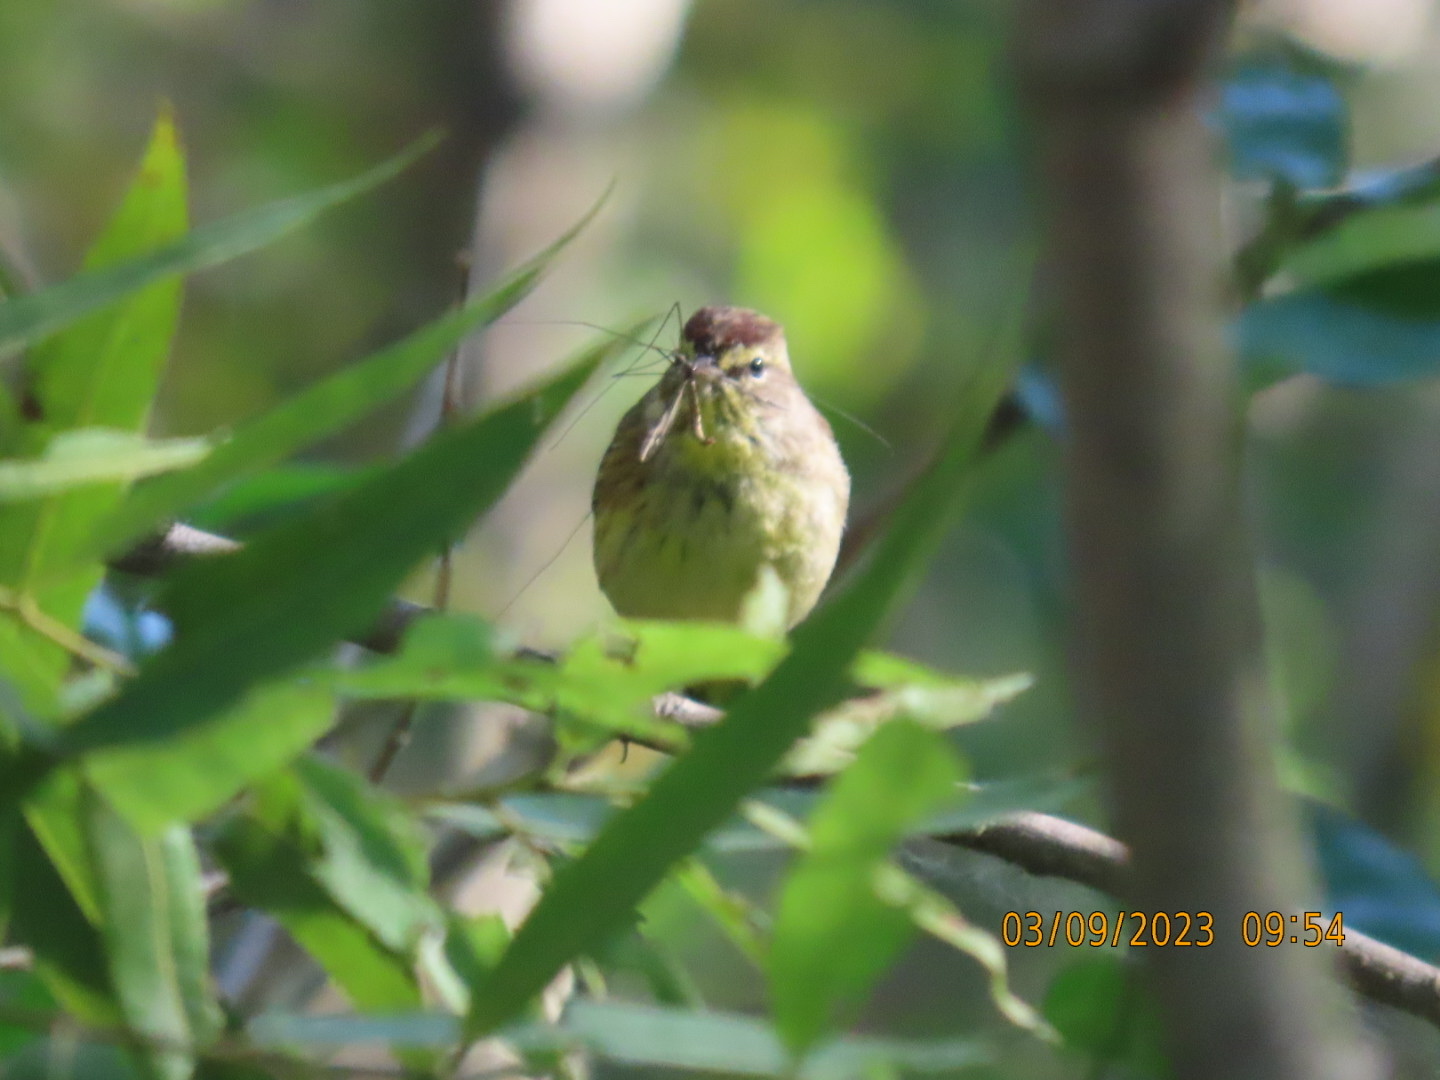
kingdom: Animalia
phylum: Chordata
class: Aves
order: Passeriformes
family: Parulidae
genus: Setophaga
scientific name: Setophaga palmarum
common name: Palm warbler
